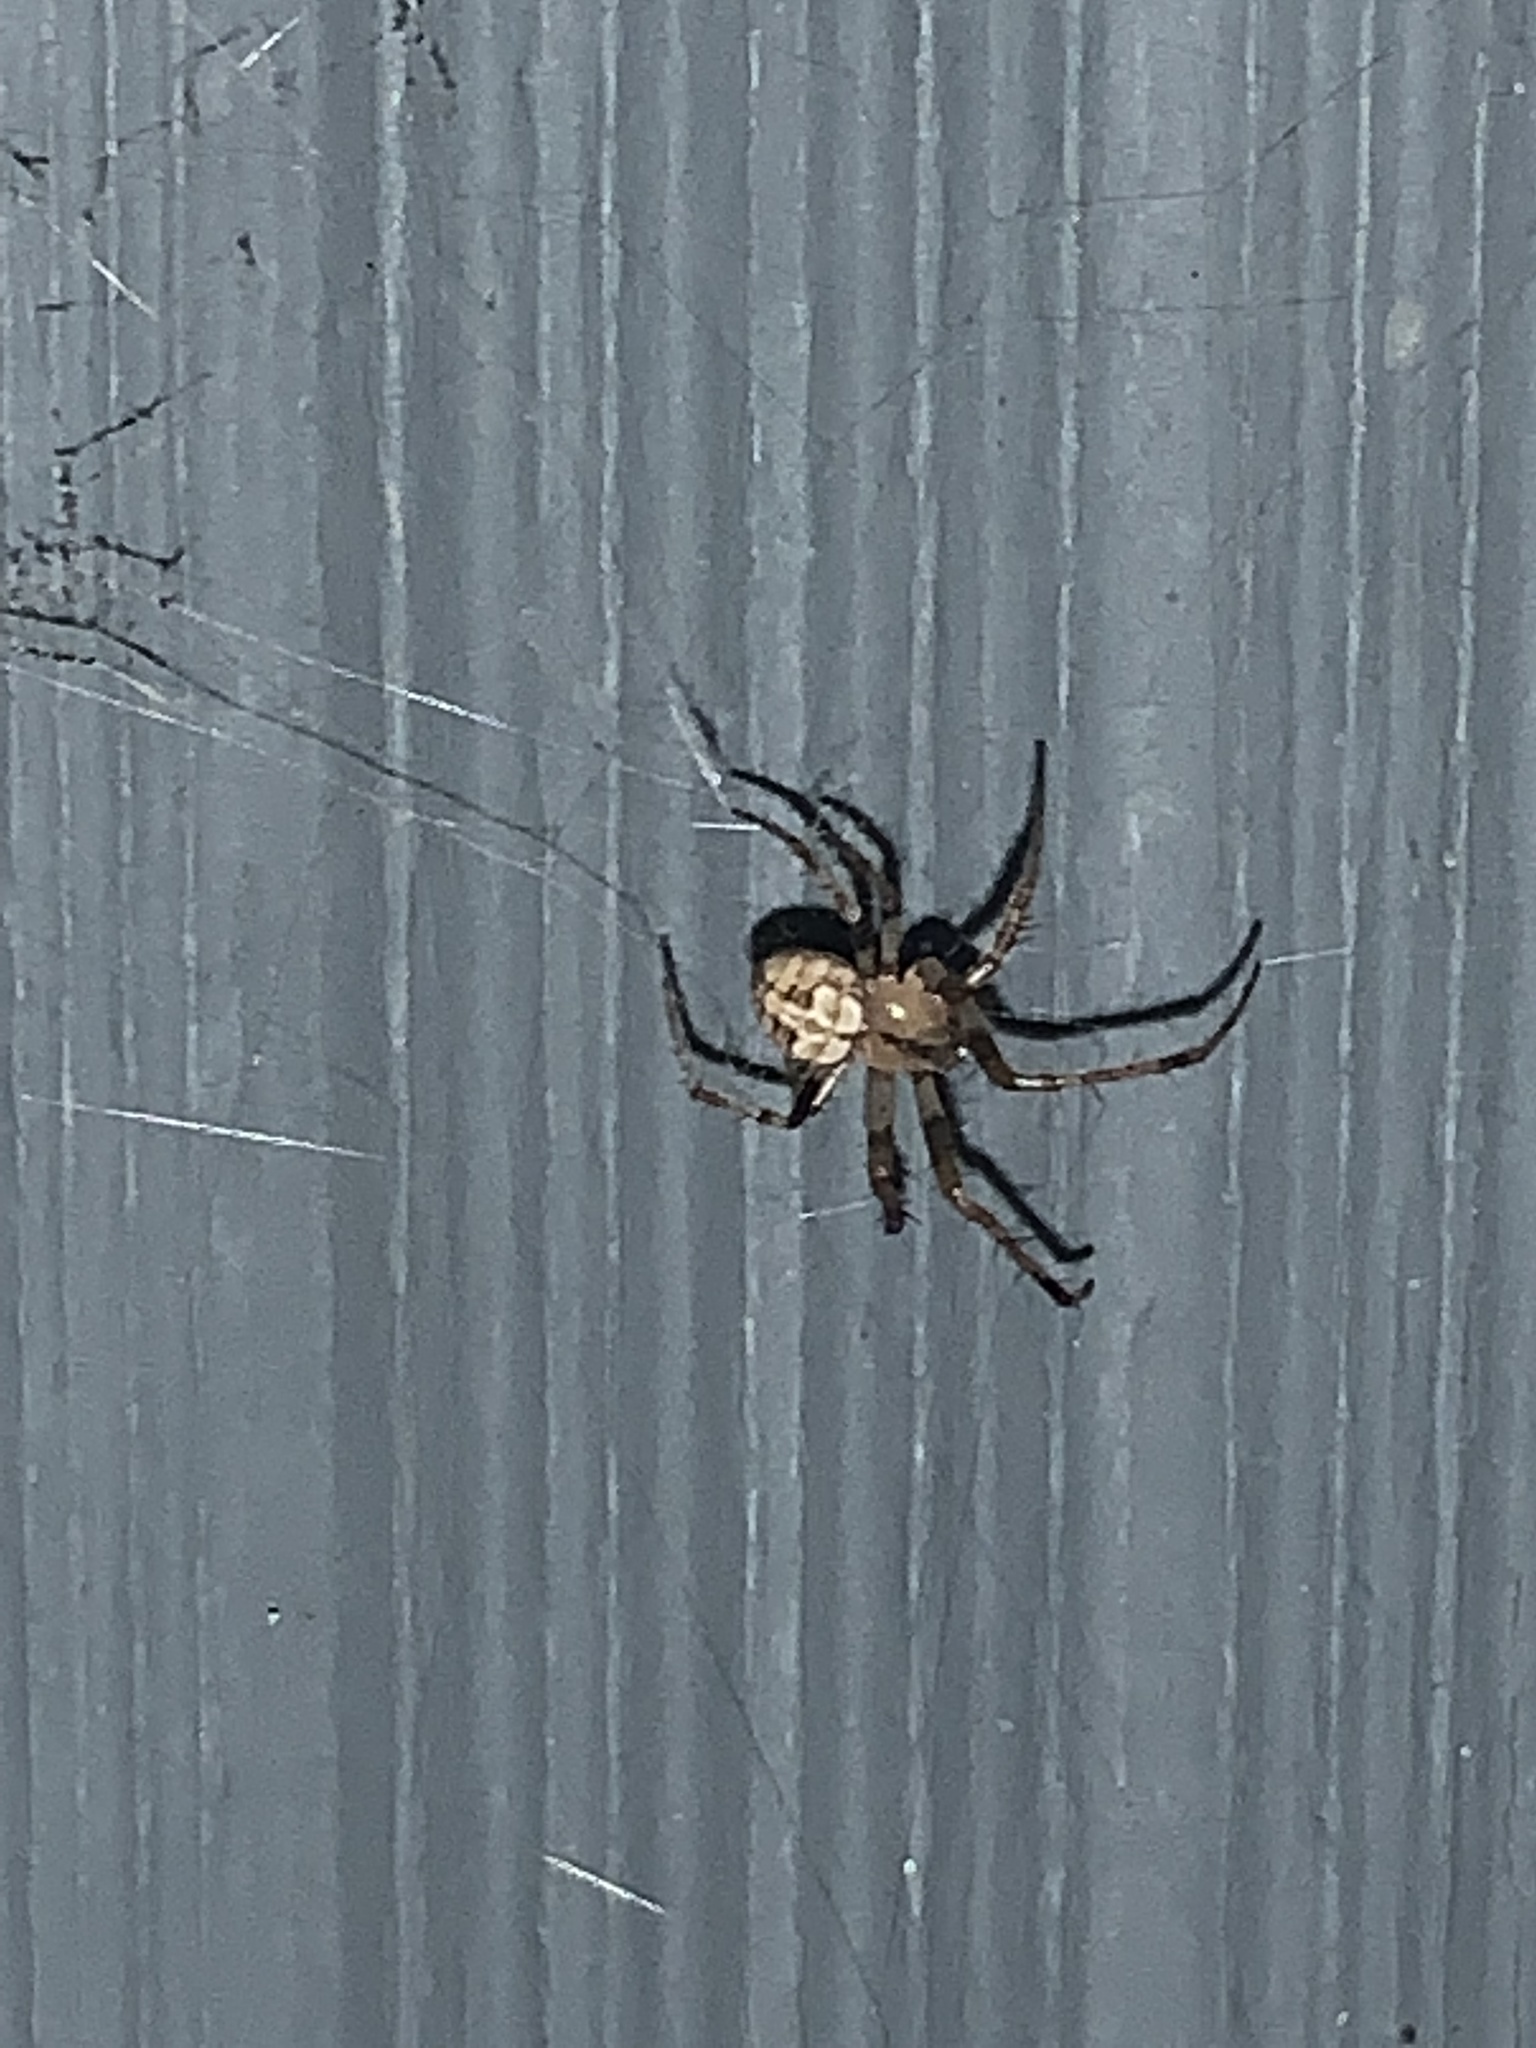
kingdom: Animalia
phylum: Arthropoda
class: Arachnida
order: Araneae
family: Araneidae
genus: Araneus
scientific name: Araneus pegnia
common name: Orb weavers
